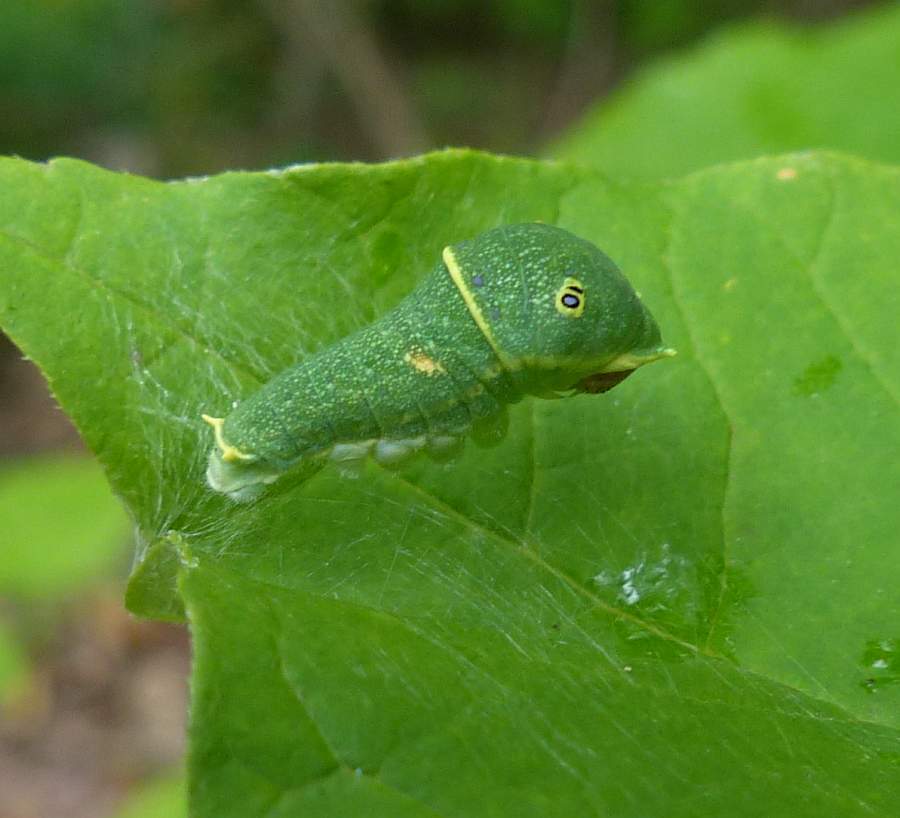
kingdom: Animalia
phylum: Arthropoda
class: Insecta
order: Lepidoptera
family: Papilionidae
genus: Papilio
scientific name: Papilio canadensis
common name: Canadian tiger swallowtail
